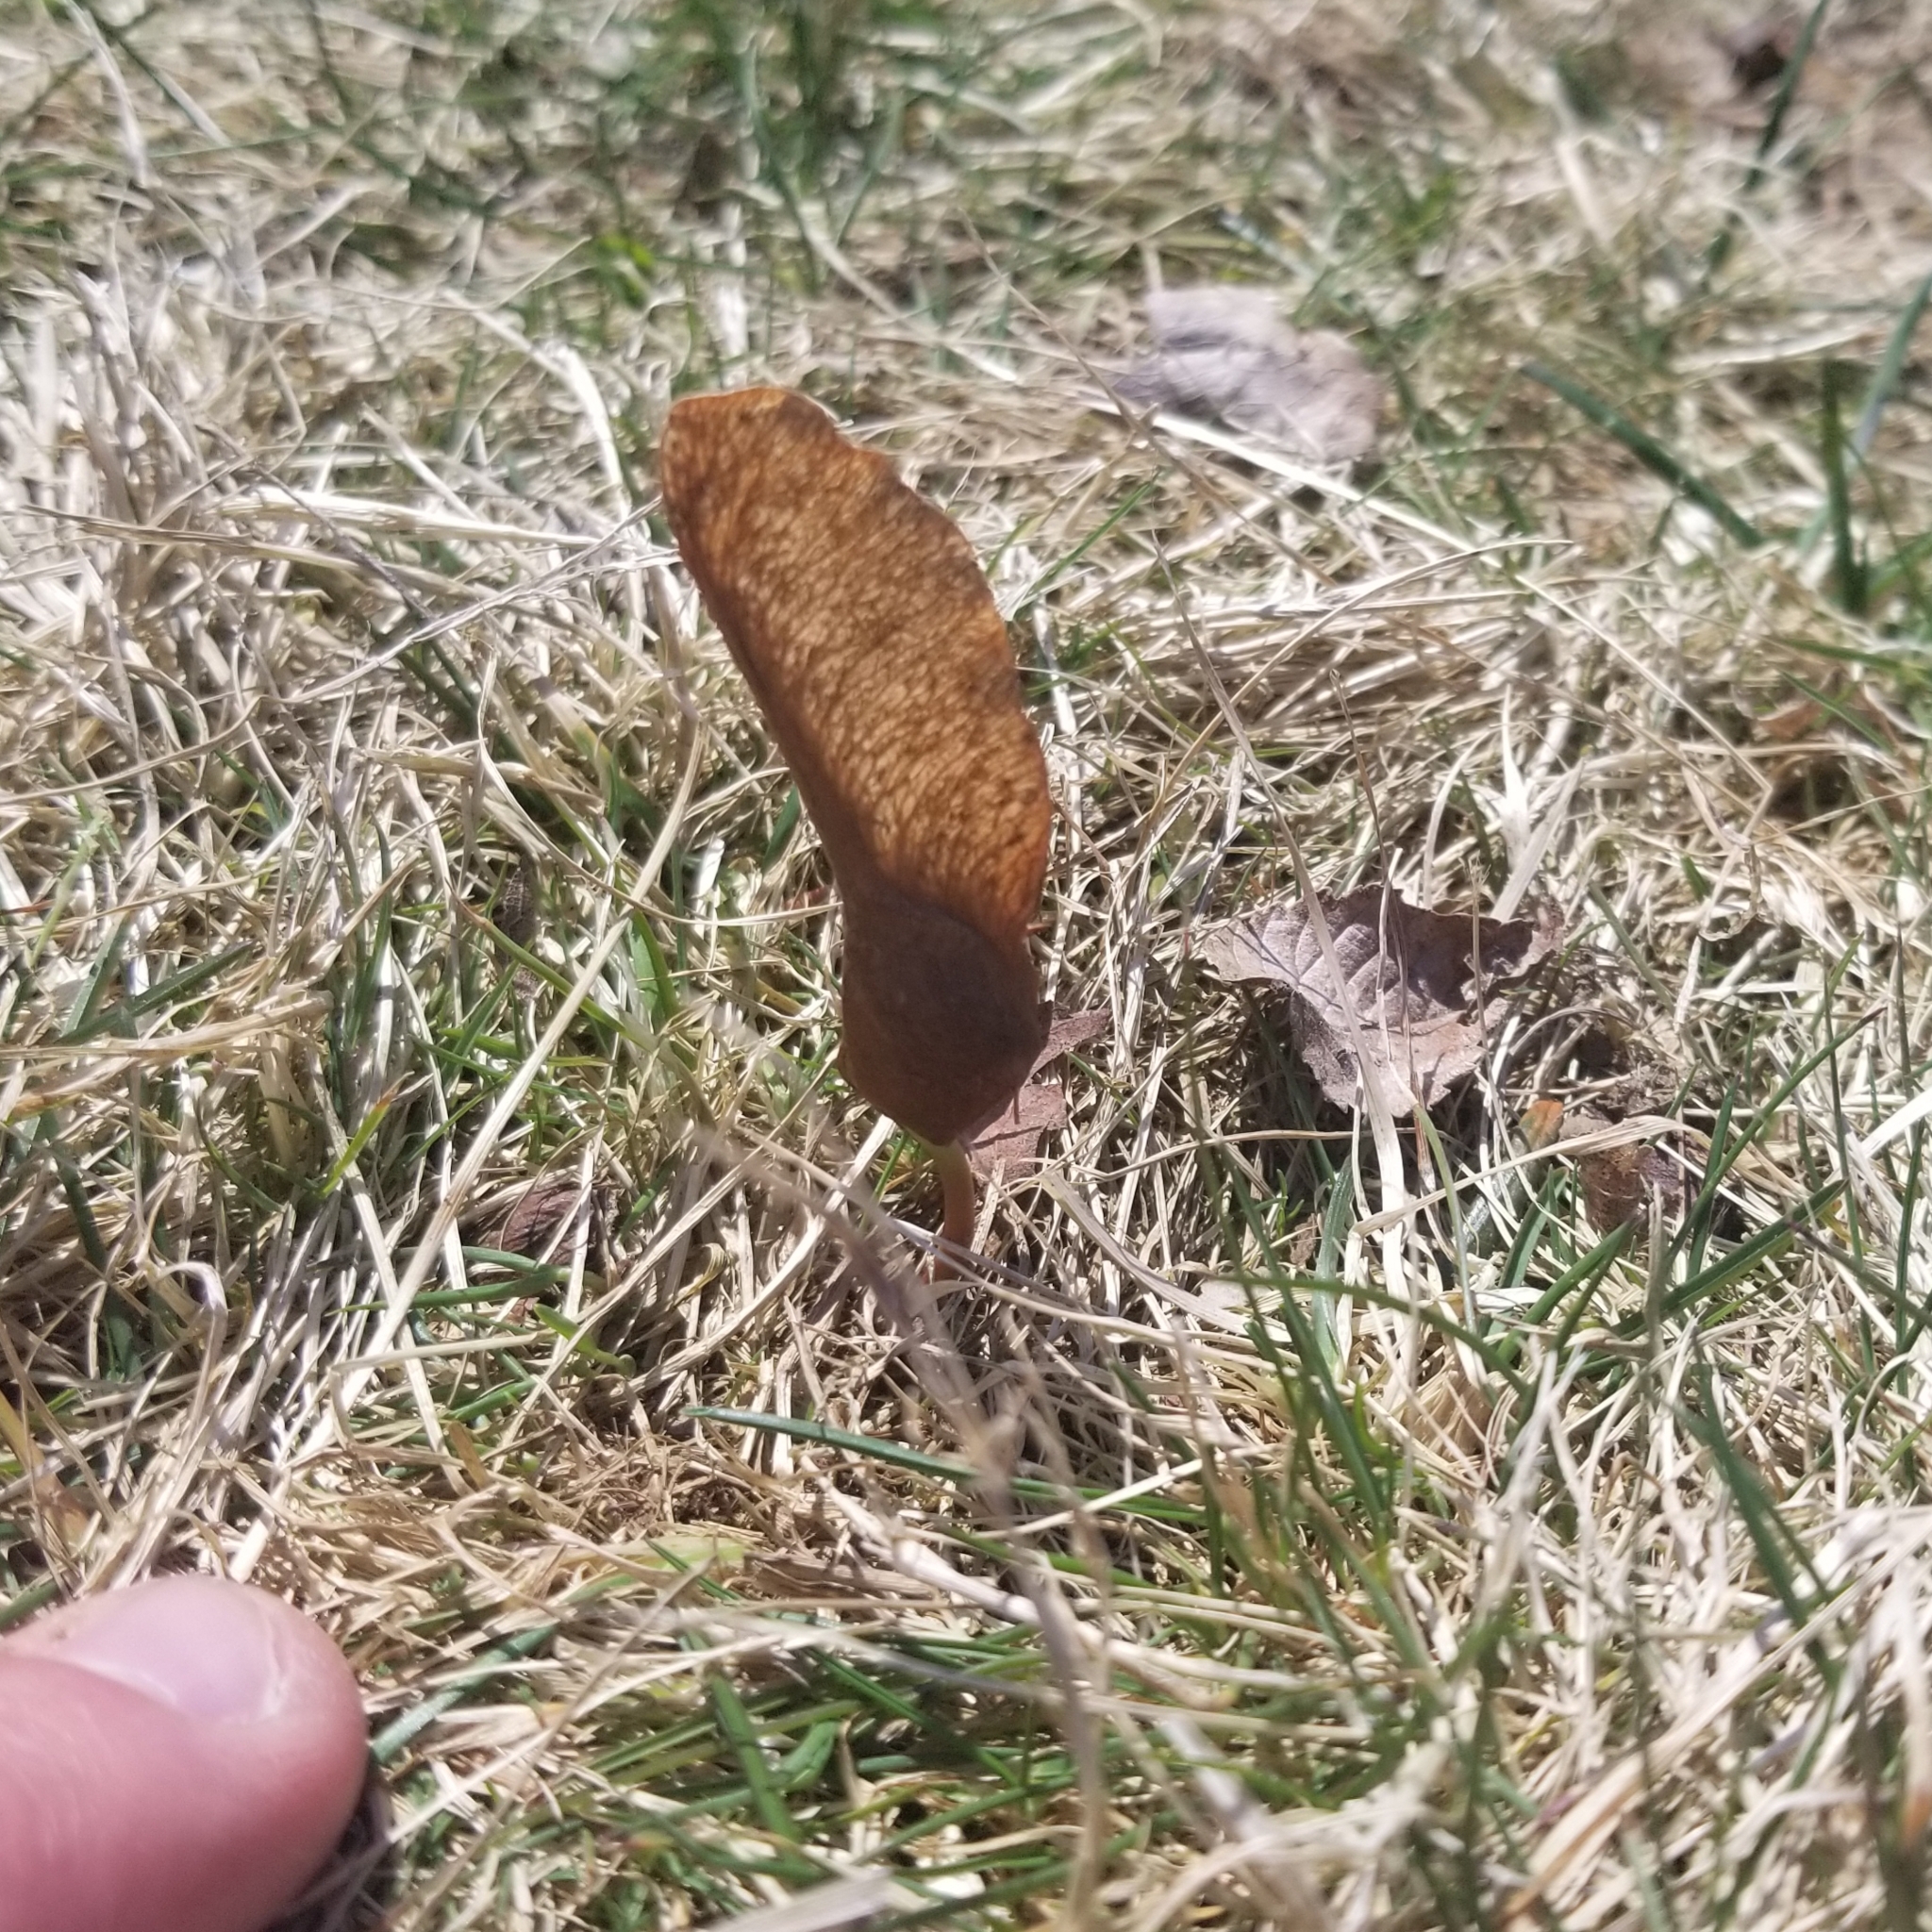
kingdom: Plantae
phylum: Tracheophyta
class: Magnoliopsida
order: Sapindales
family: Sapindaceae
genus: Acer
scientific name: Acer platanoides
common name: Norway maple
